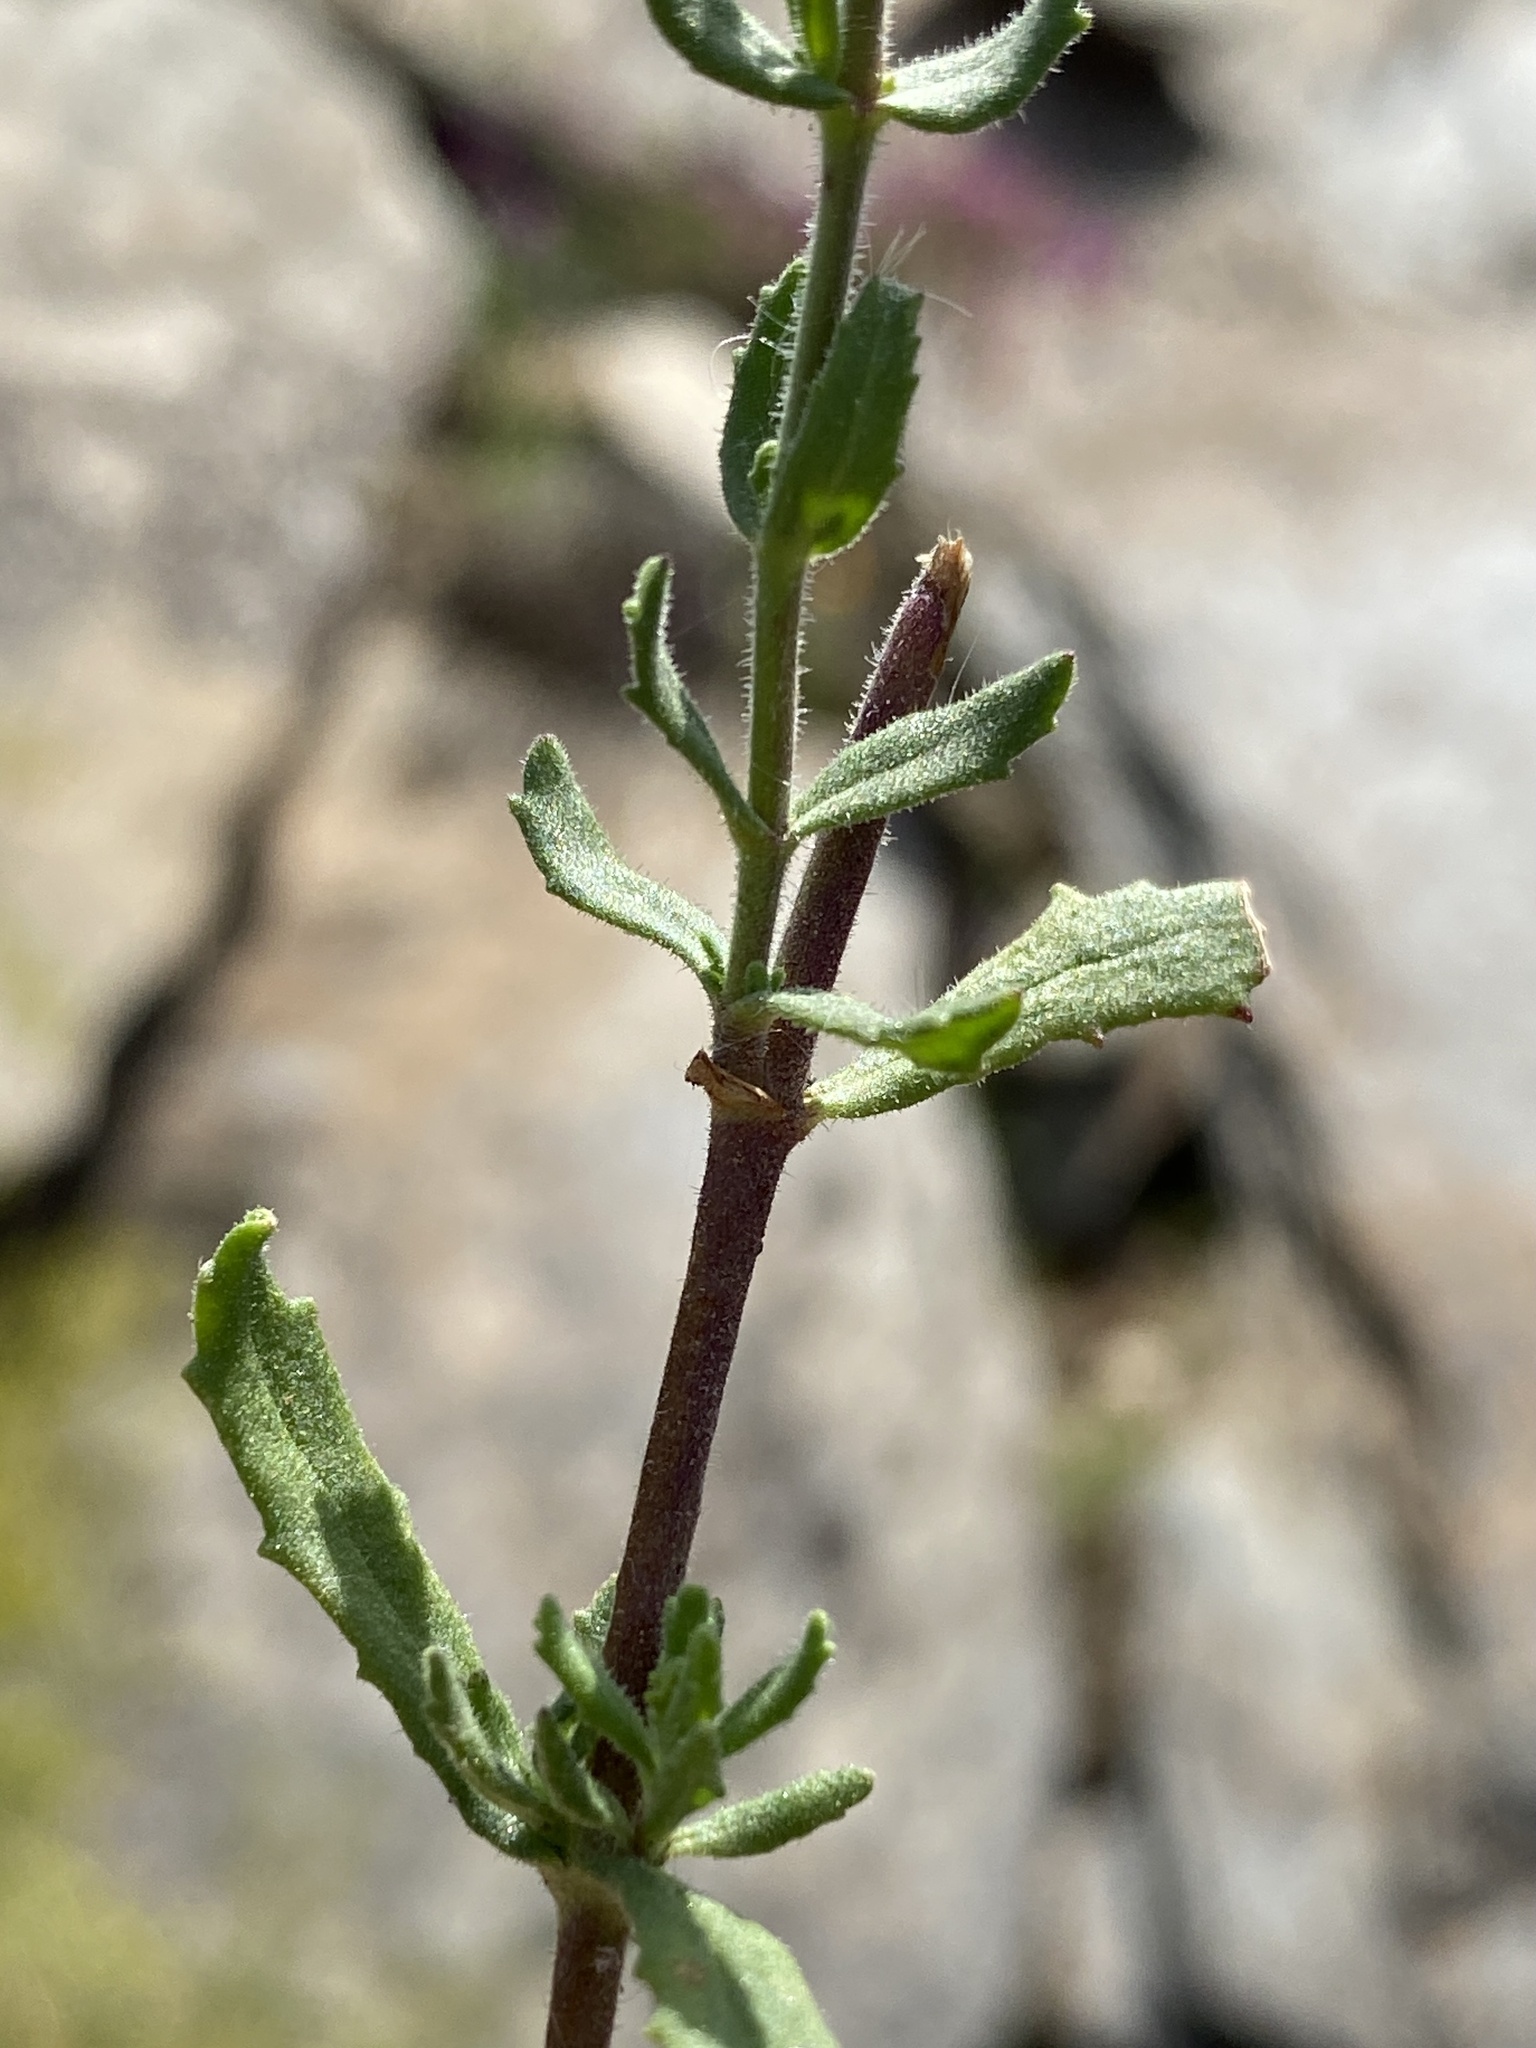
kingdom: Plantae
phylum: Tracheophyta
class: Magnoliopsida
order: Lamiales
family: Scrophulariaceae
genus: Chaenostoma
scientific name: Chaenostoma caeruleum
